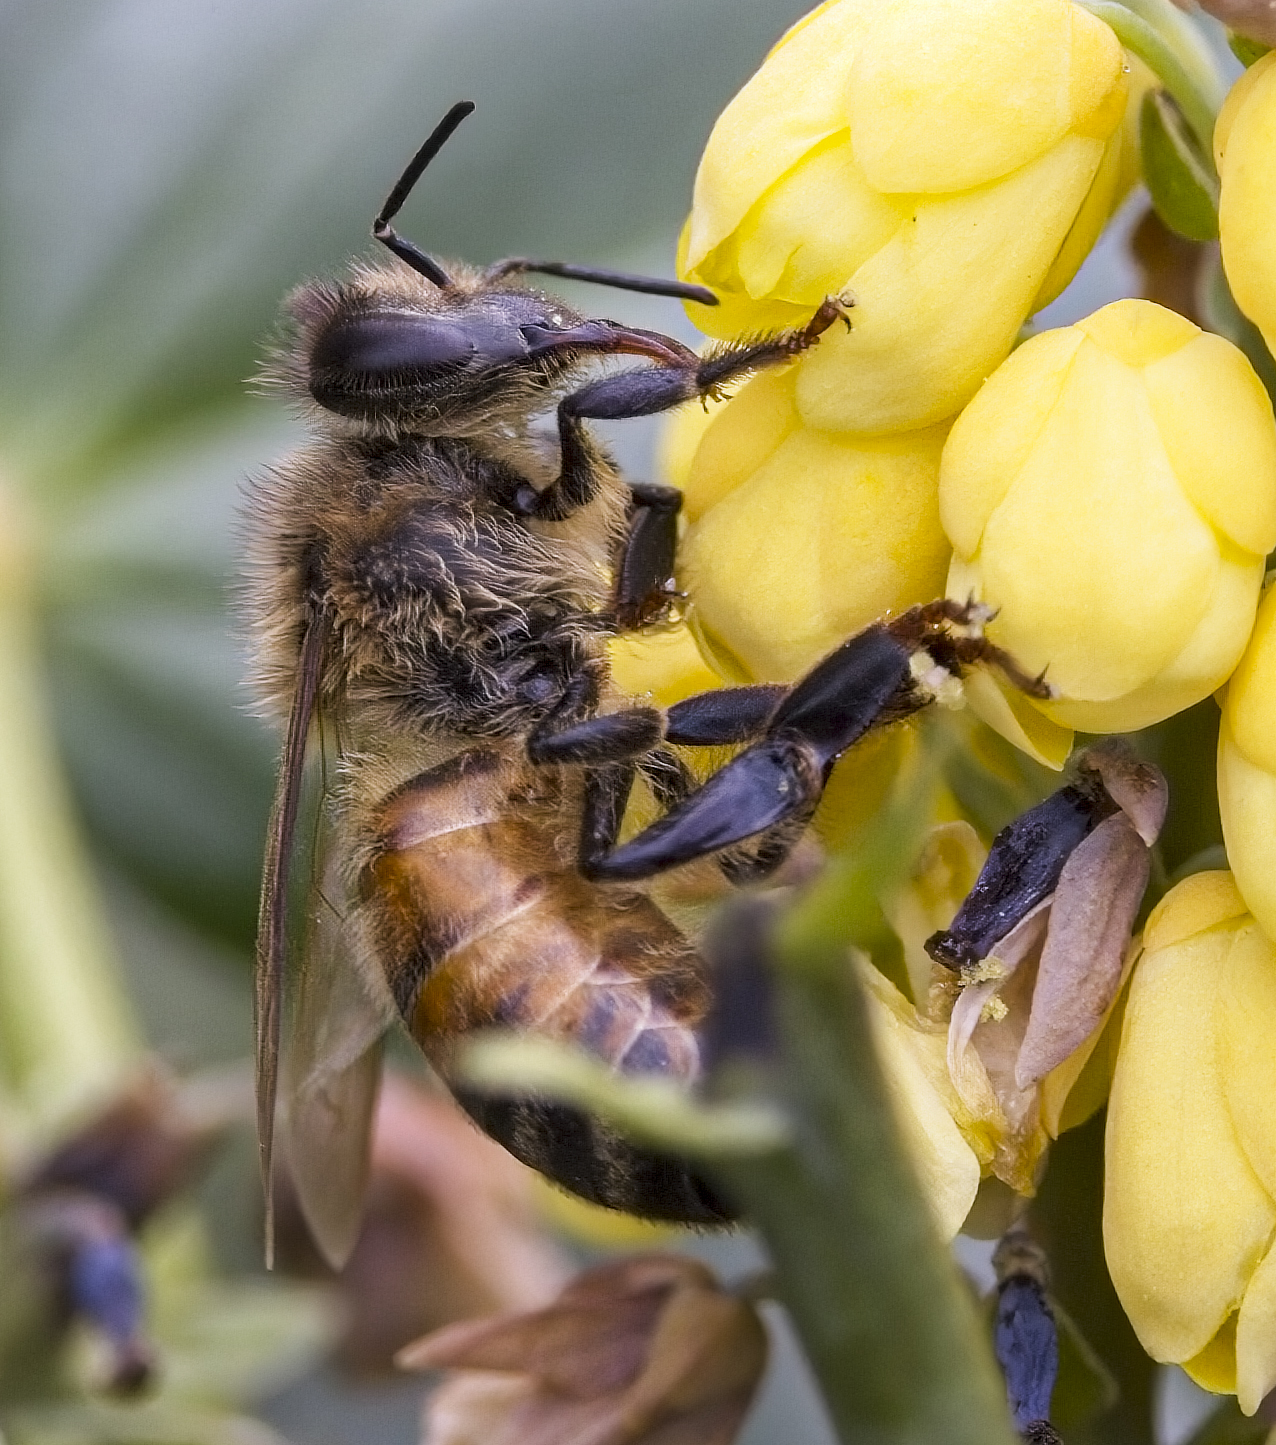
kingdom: Animalia
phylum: Arthropoda
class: Insecta
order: Hymenoptera
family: Apidae
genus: Apis
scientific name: Apis mellifera
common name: Honey bee
